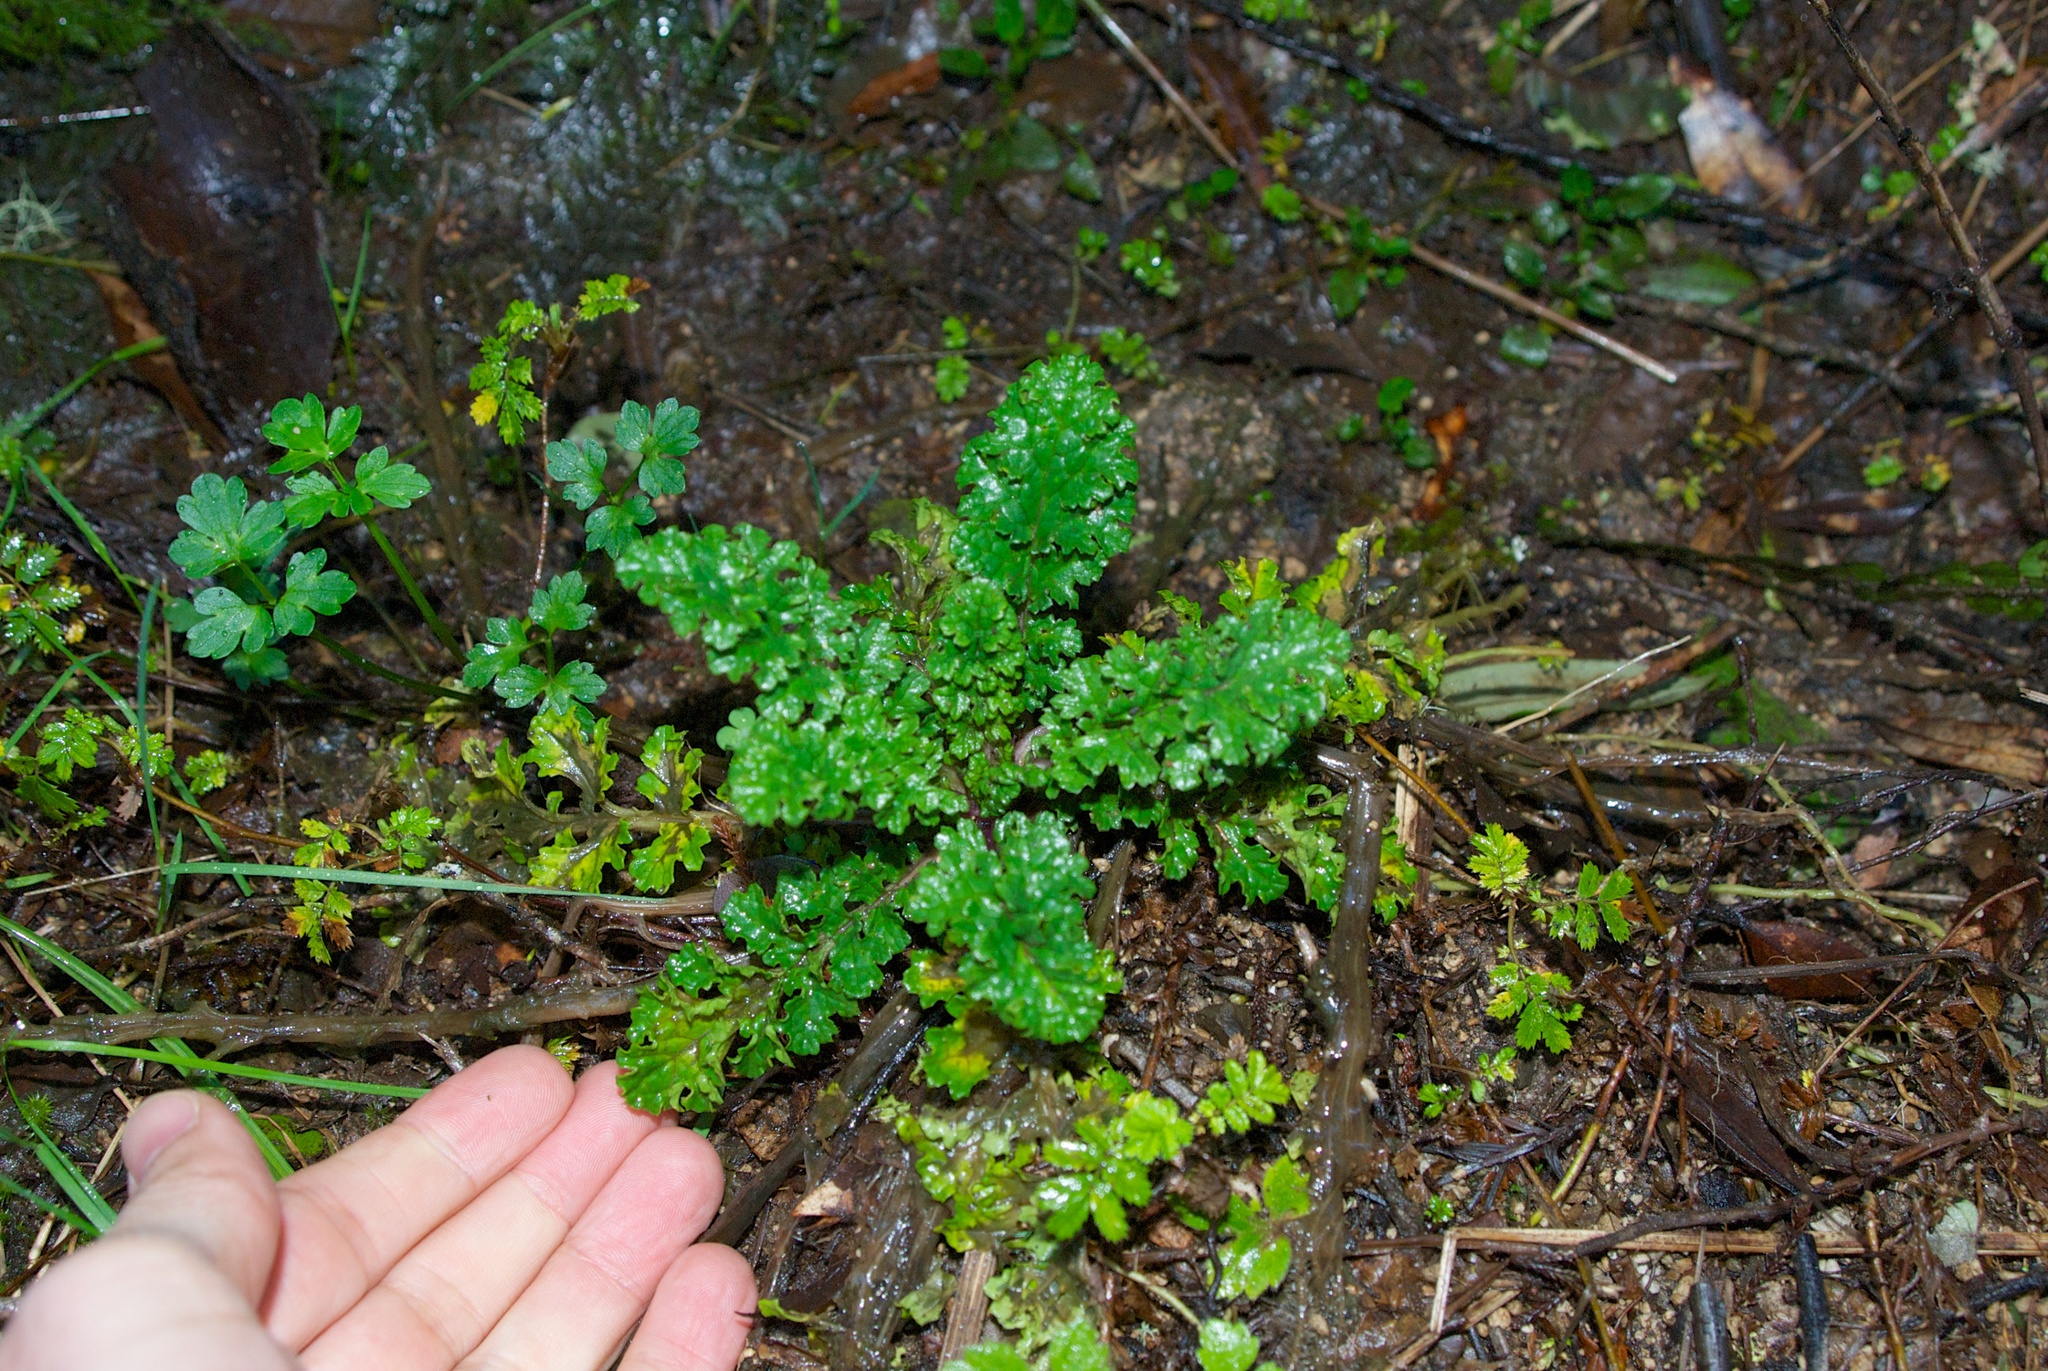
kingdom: Plantae
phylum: Tracheophyta
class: Magnoliopsida
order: Asterales
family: Asteraceae
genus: Jacobaea
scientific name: Jacobaea vulgaris
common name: Stinking willie
